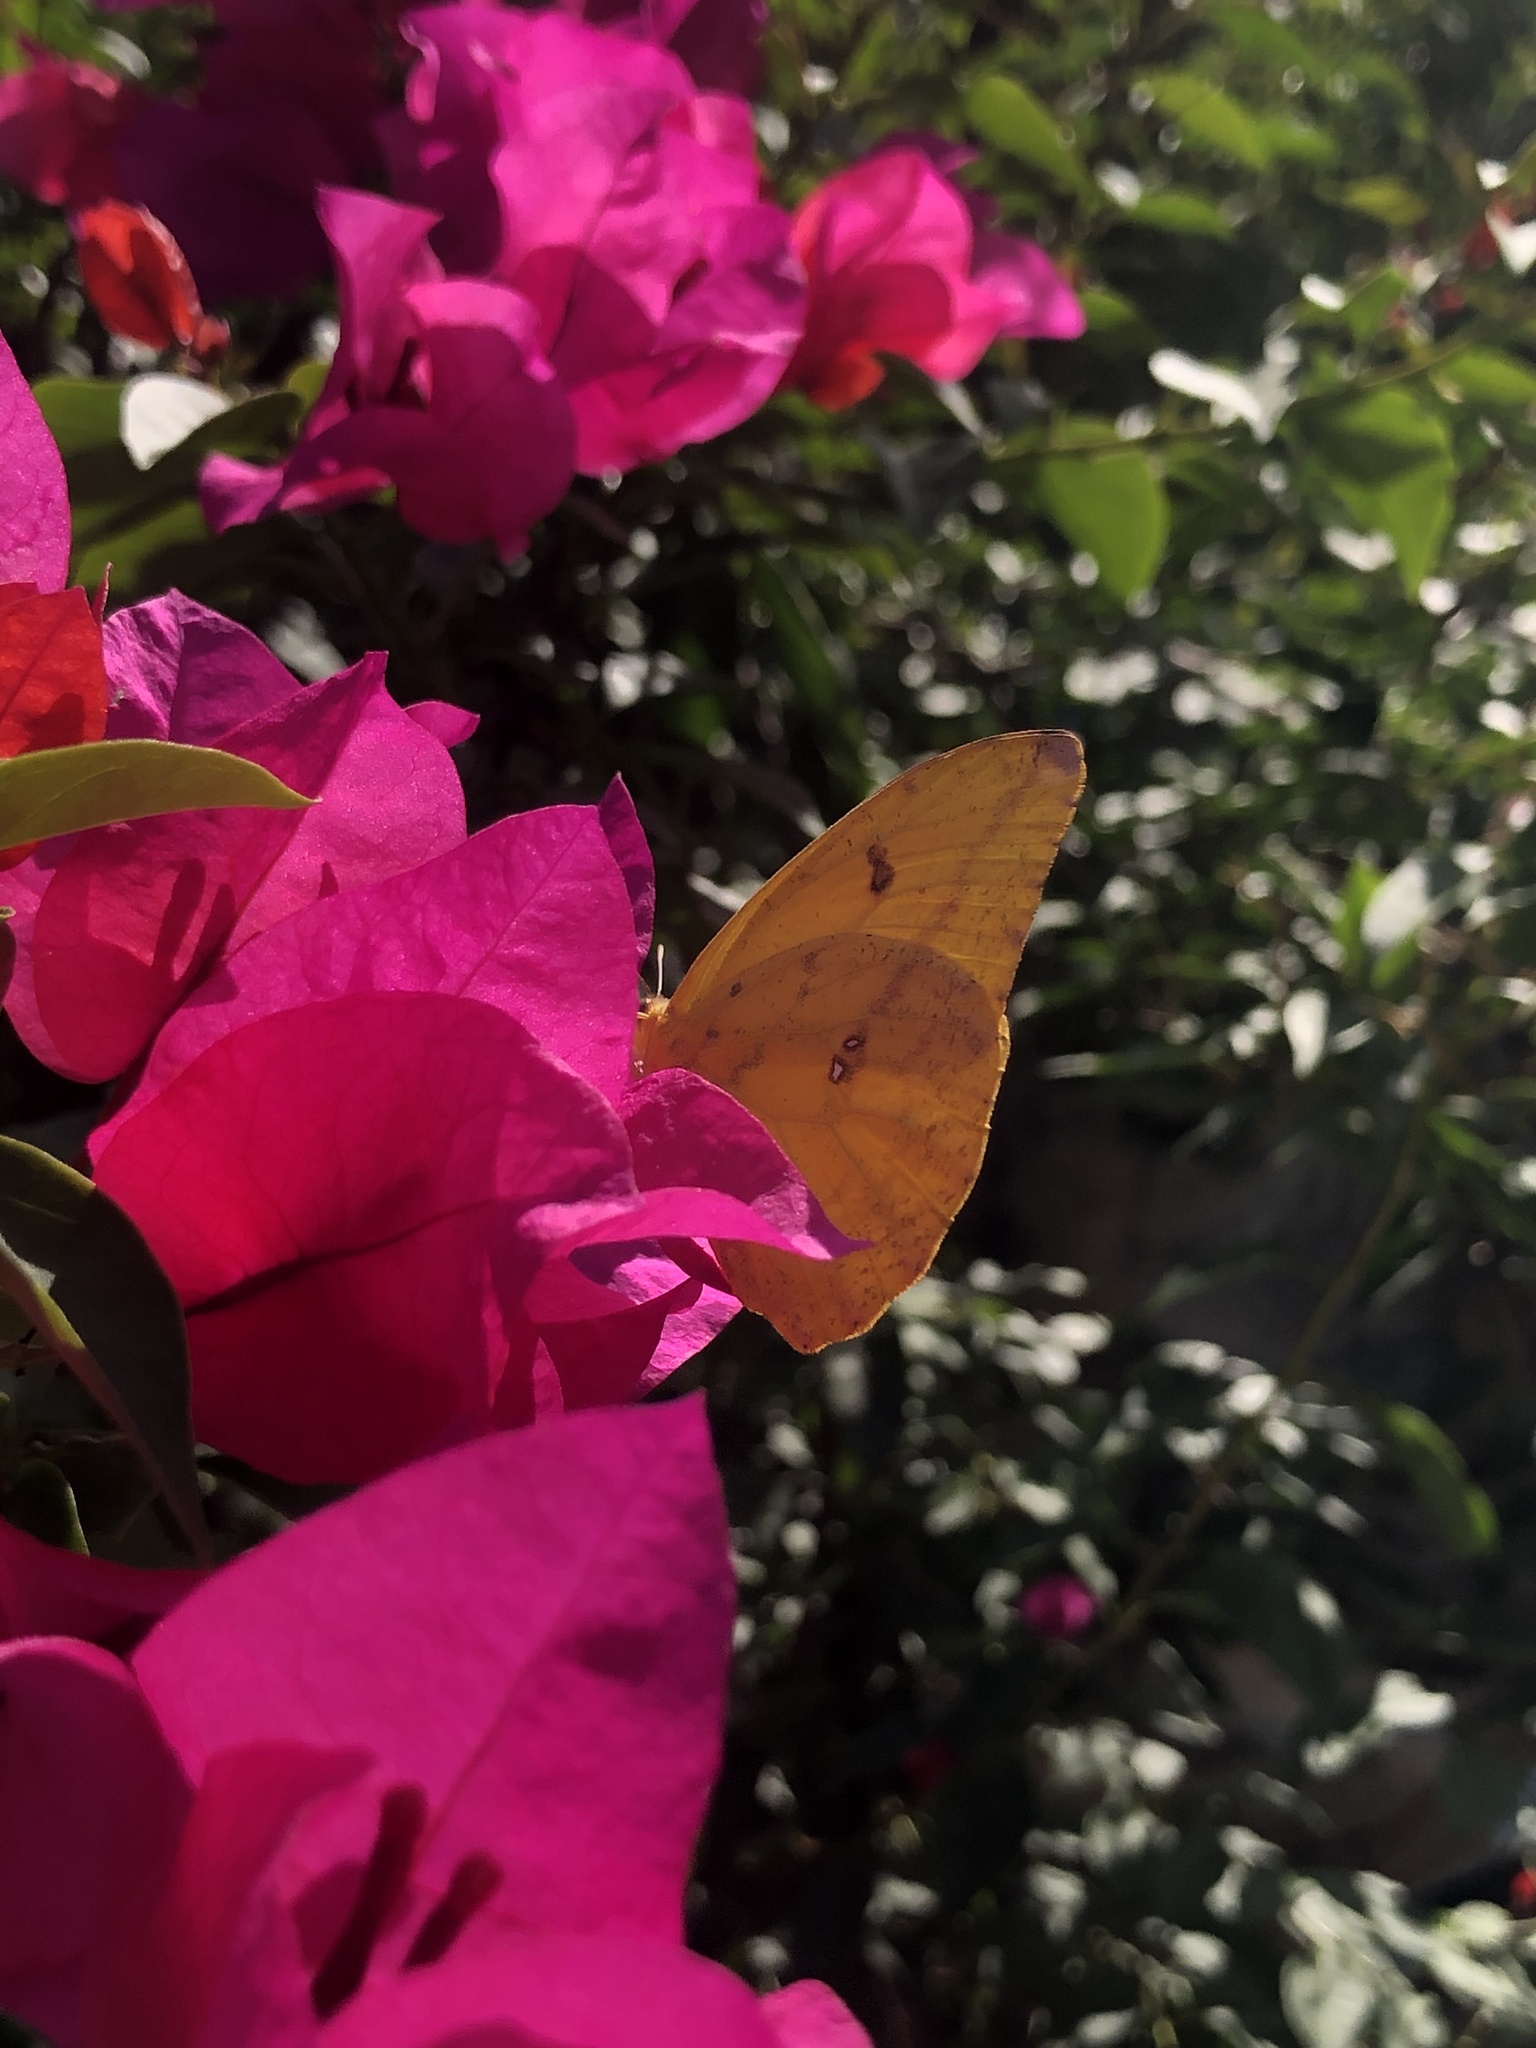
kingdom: Animalia
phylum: Arthropoda
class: Insecta
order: Lepidoptera
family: Pieridae
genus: Phoebis
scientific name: Phoebis agarithe
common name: Large orange sulphur
